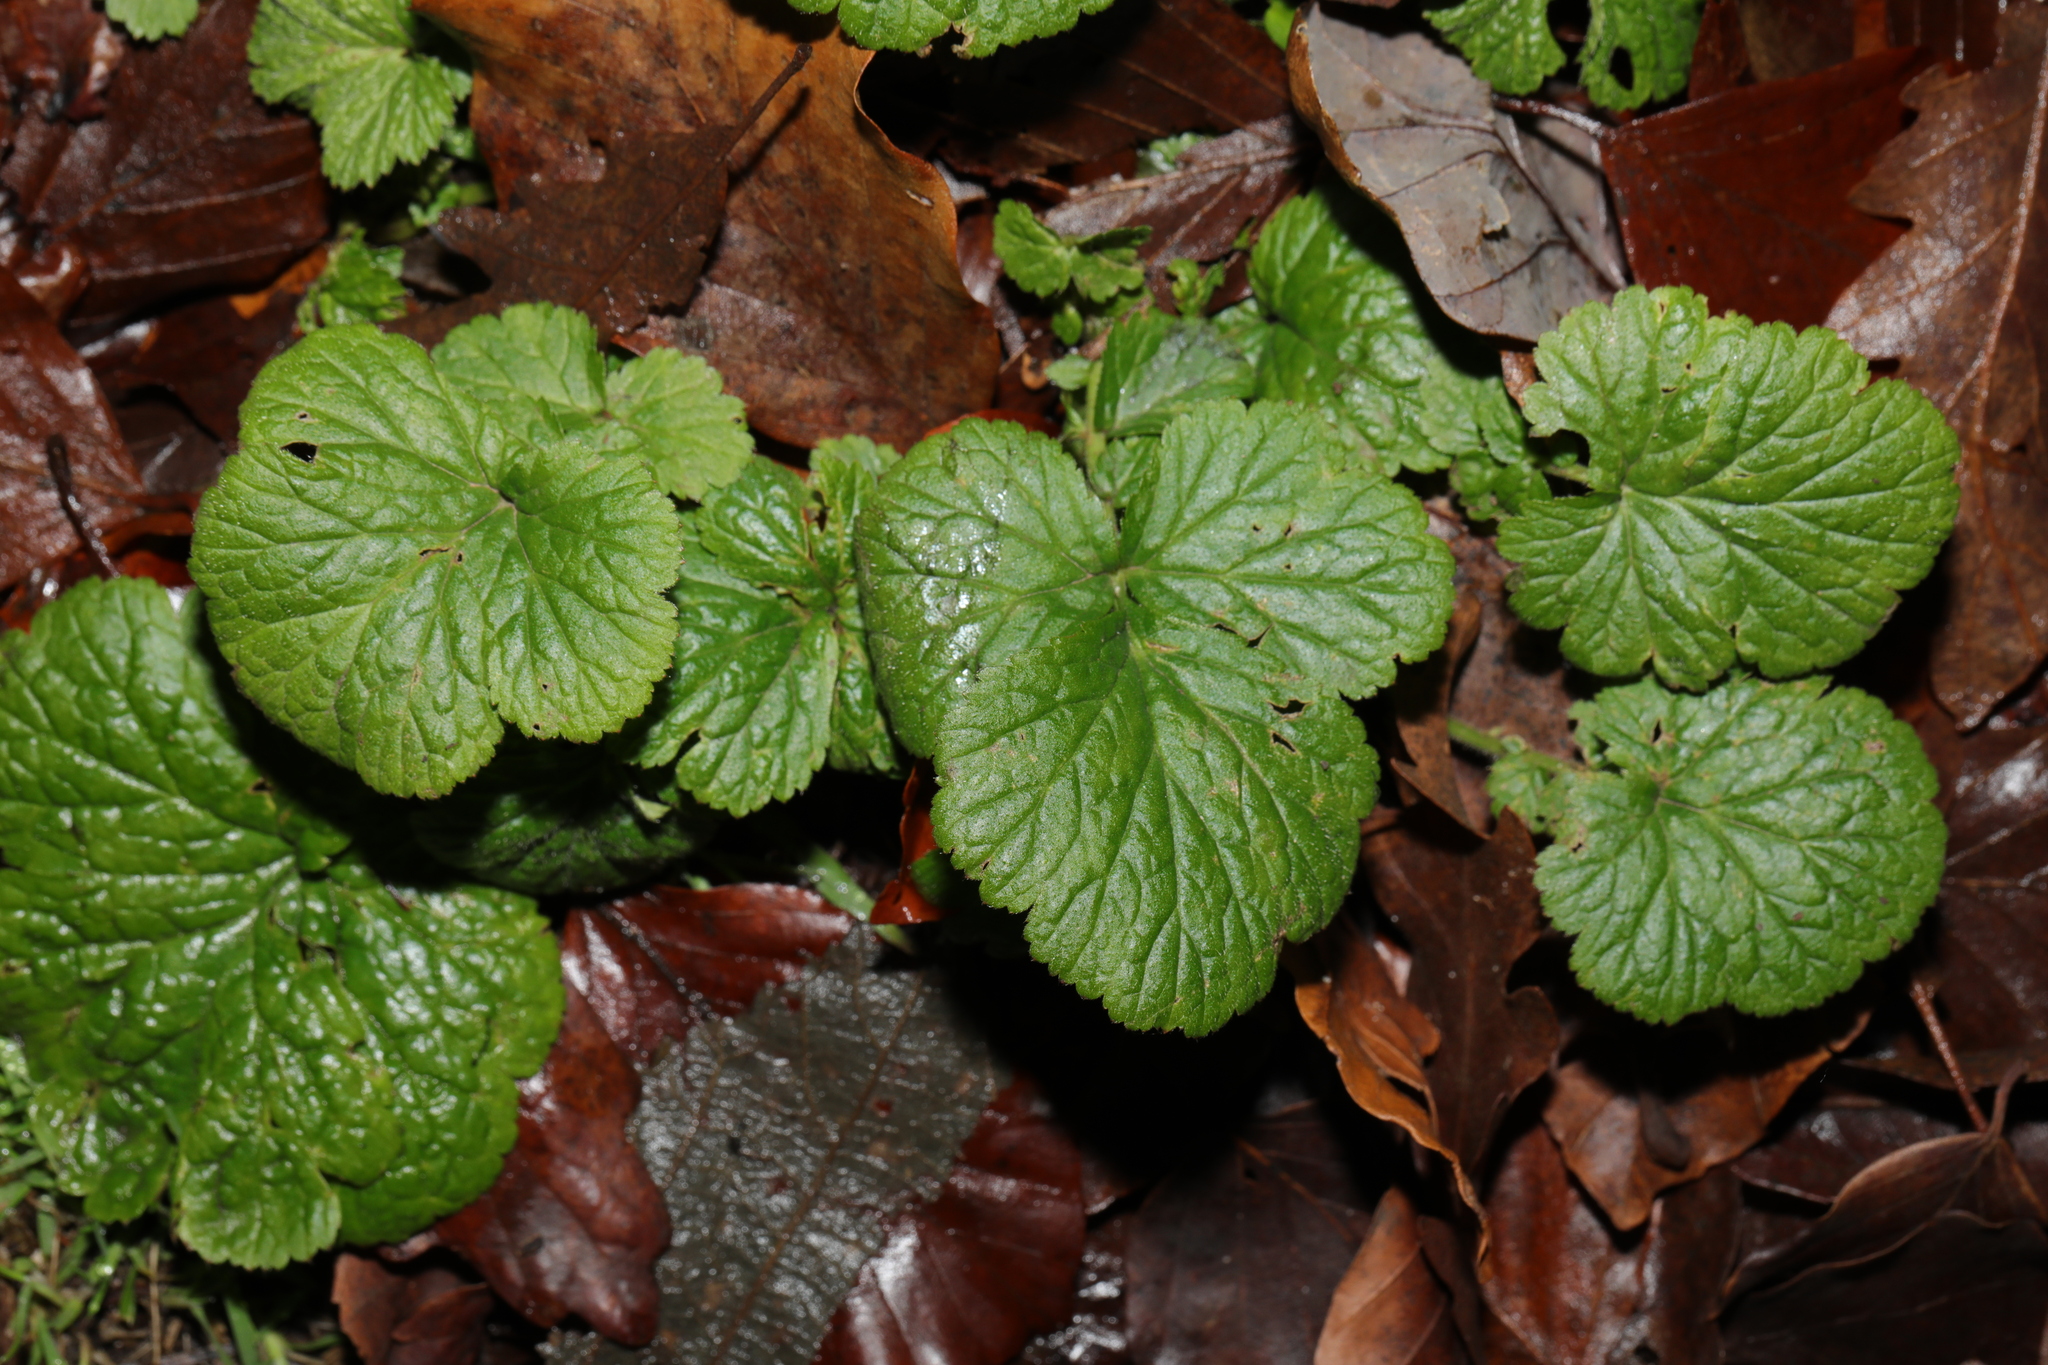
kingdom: Plantae
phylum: Tracheophyta
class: Magnoliopsida
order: Rosales
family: Rosaceae
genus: Geum
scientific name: Geum urbanum
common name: Wood avens
